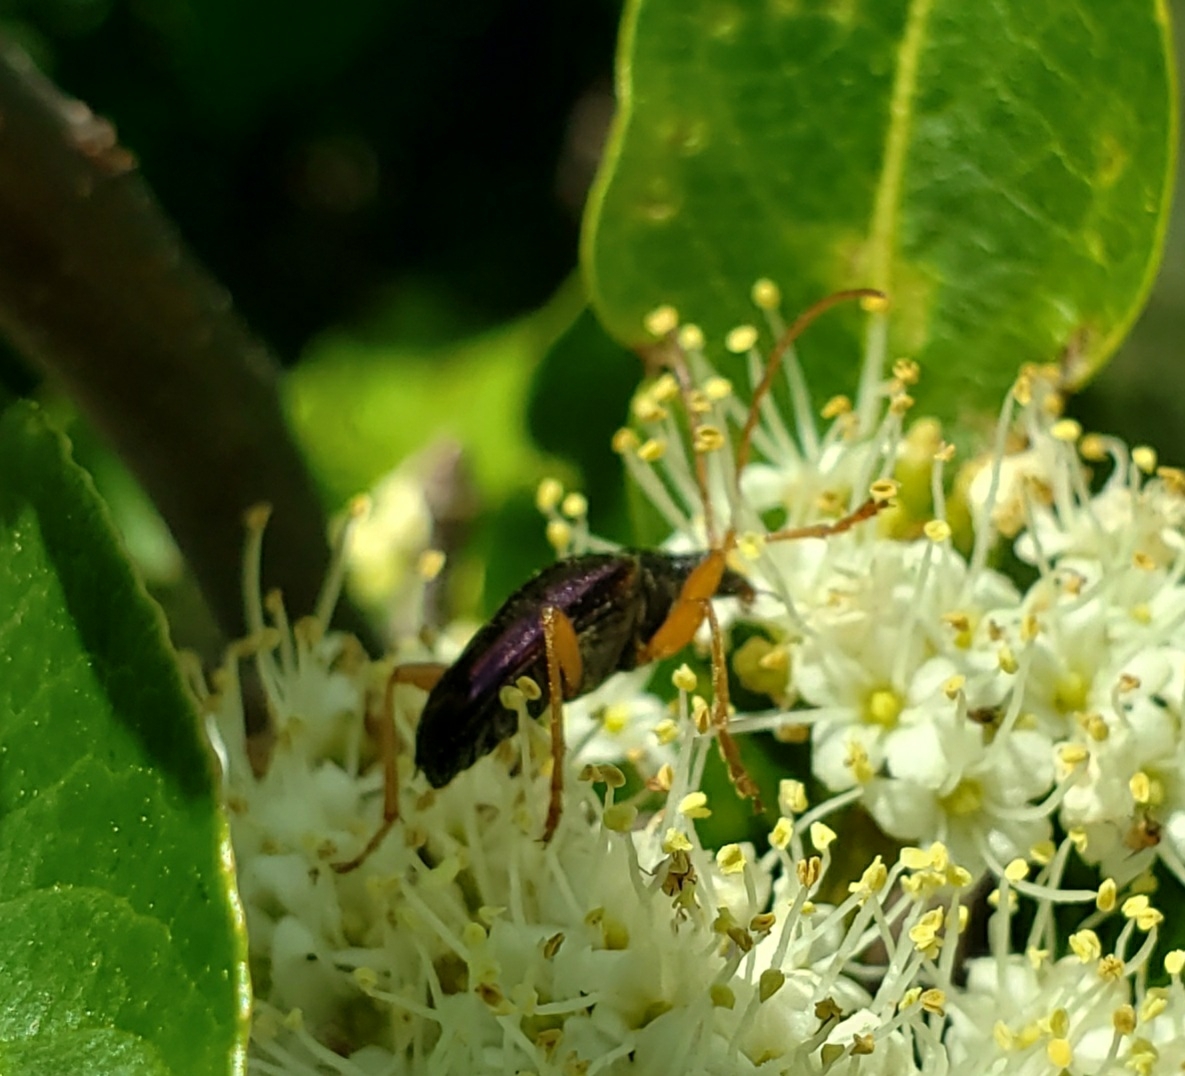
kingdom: Animalia
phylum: Arthropoda
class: Insecta
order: Coleoptera
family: Cerambycidae
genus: Gaurotes
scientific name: Gaurotes cyanipennis
